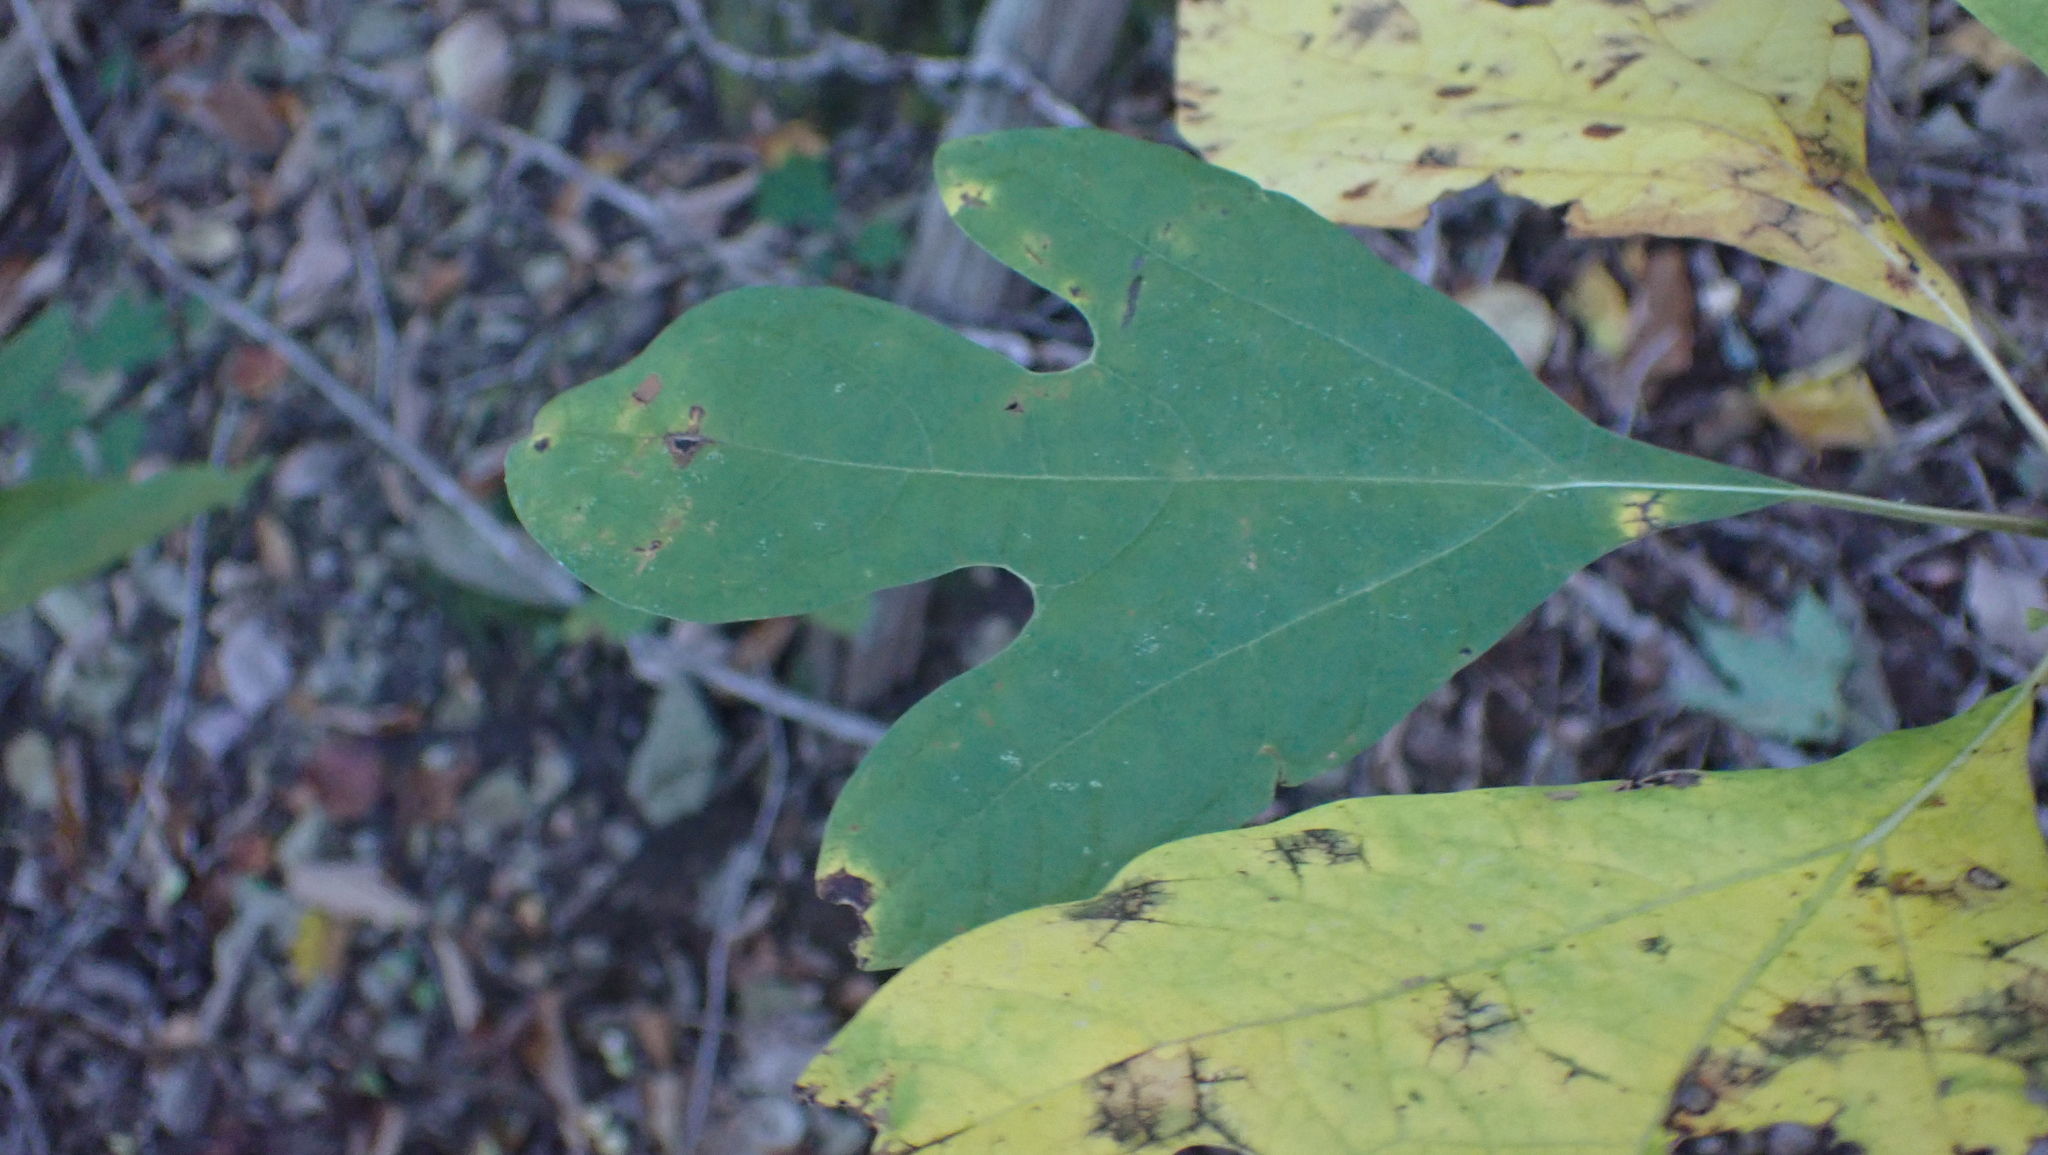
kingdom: Plantae
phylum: Tracheophyta
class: Magnoliopsida
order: Laurales
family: Lauraceae
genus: Sassafras
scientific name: Sassafras albidum
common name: Sassafras
